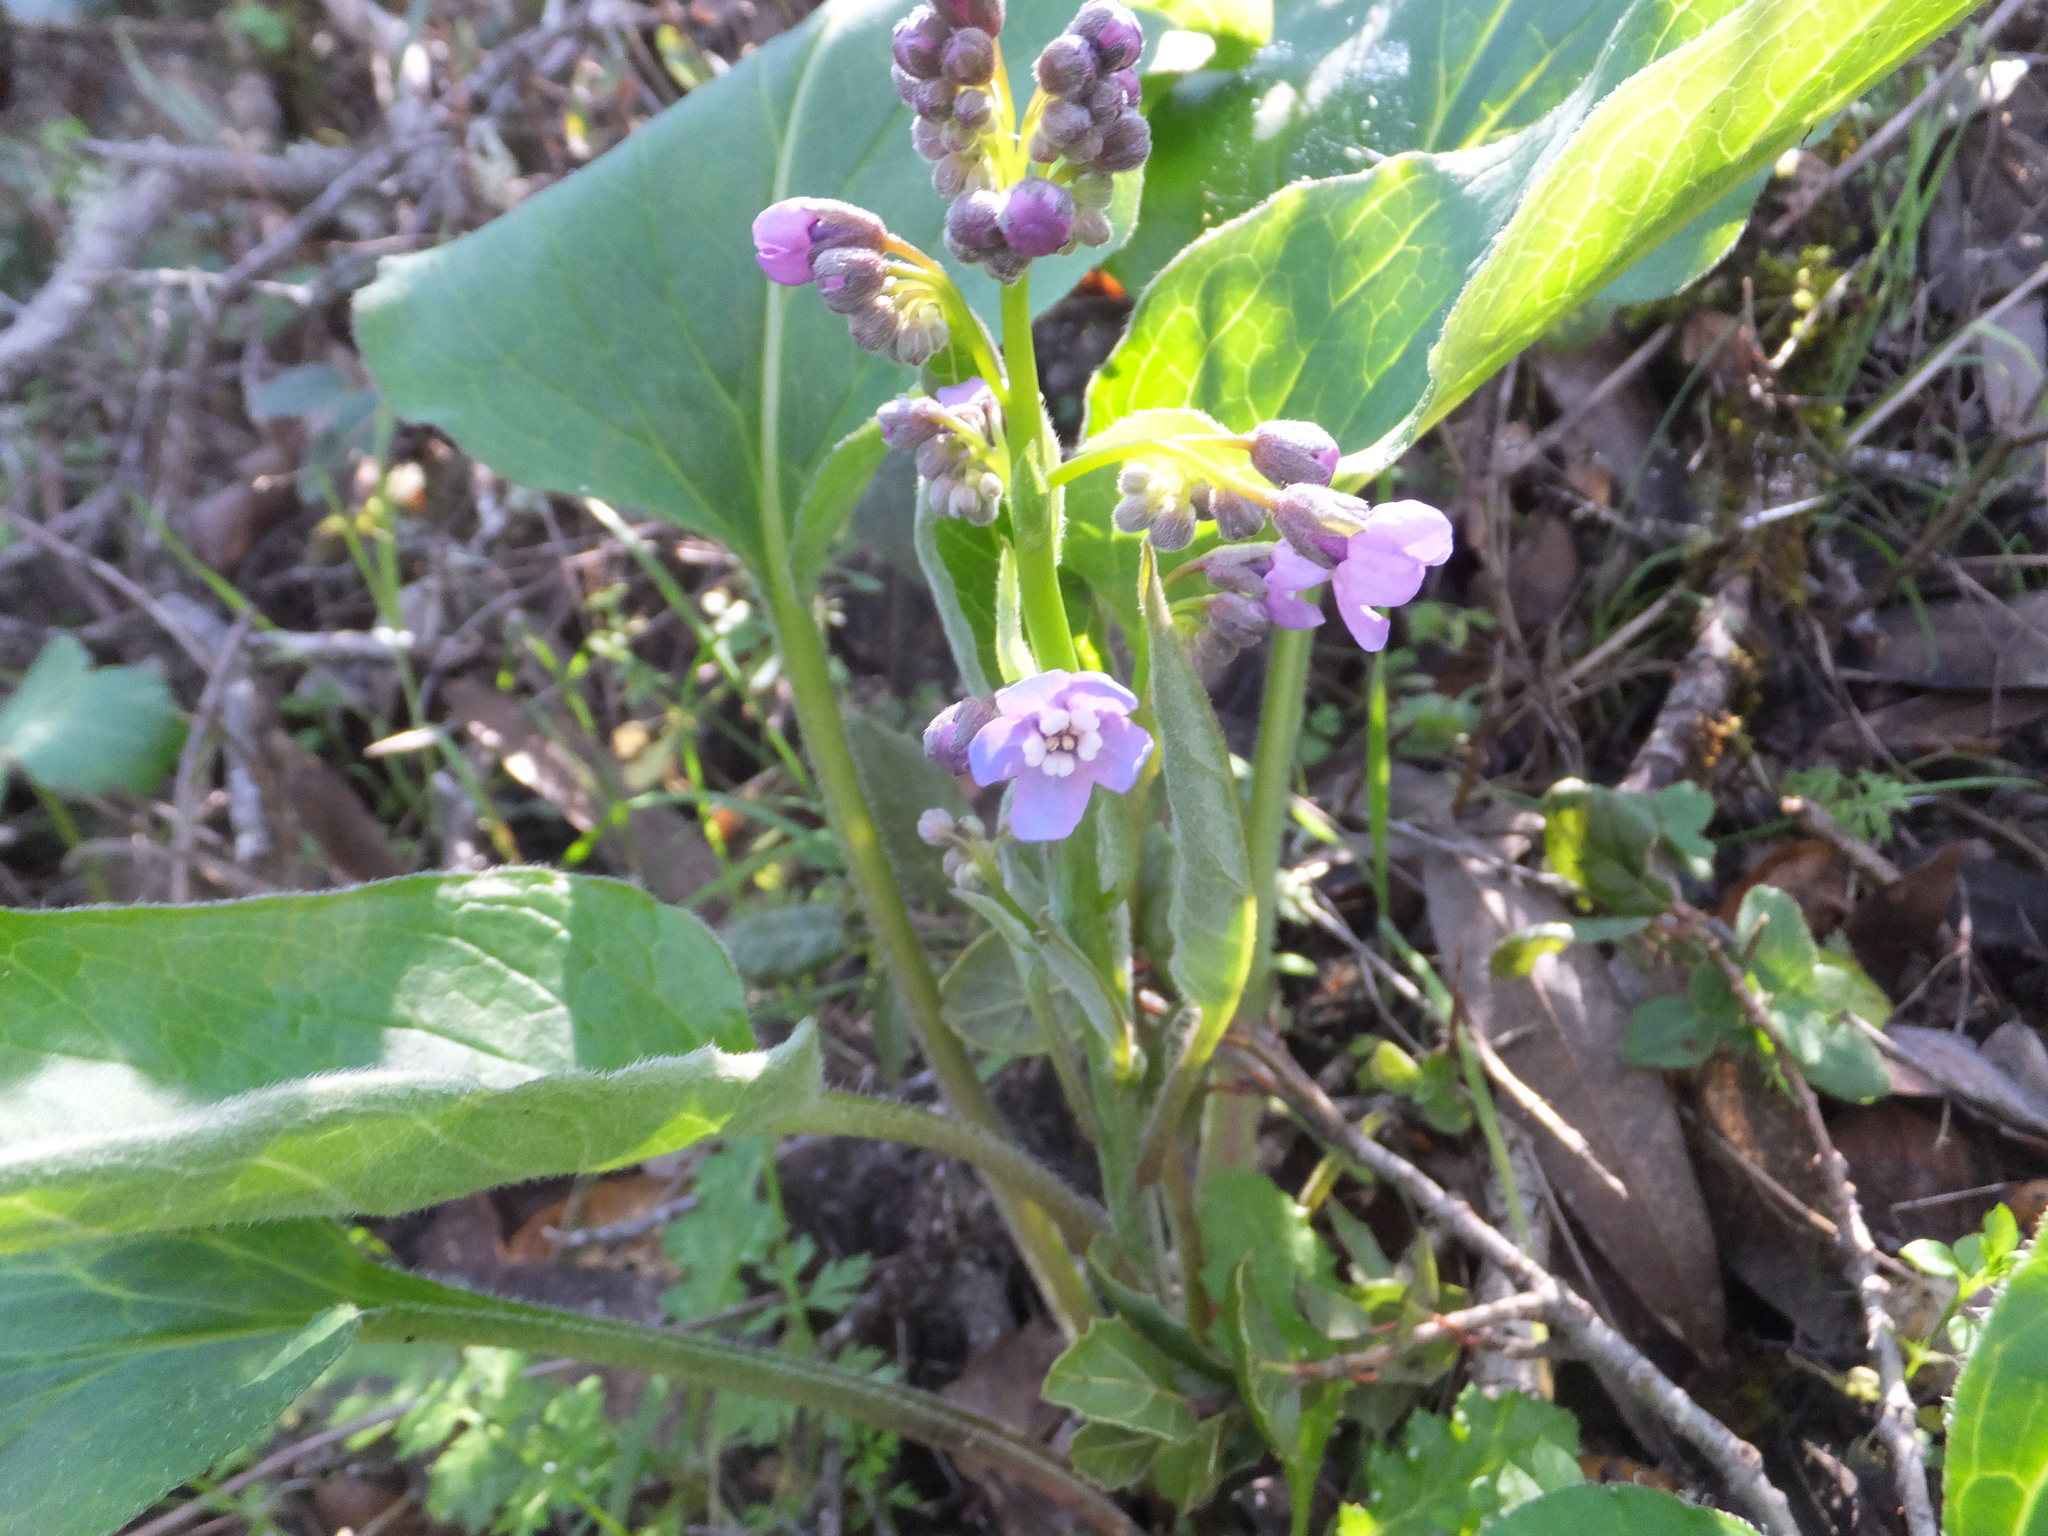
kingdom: Plantae
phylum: Tracheophyta
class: Magnoliopsida
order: Boraginales
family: Boraginaceae
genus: Adelinia
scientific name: Adelinia grande
